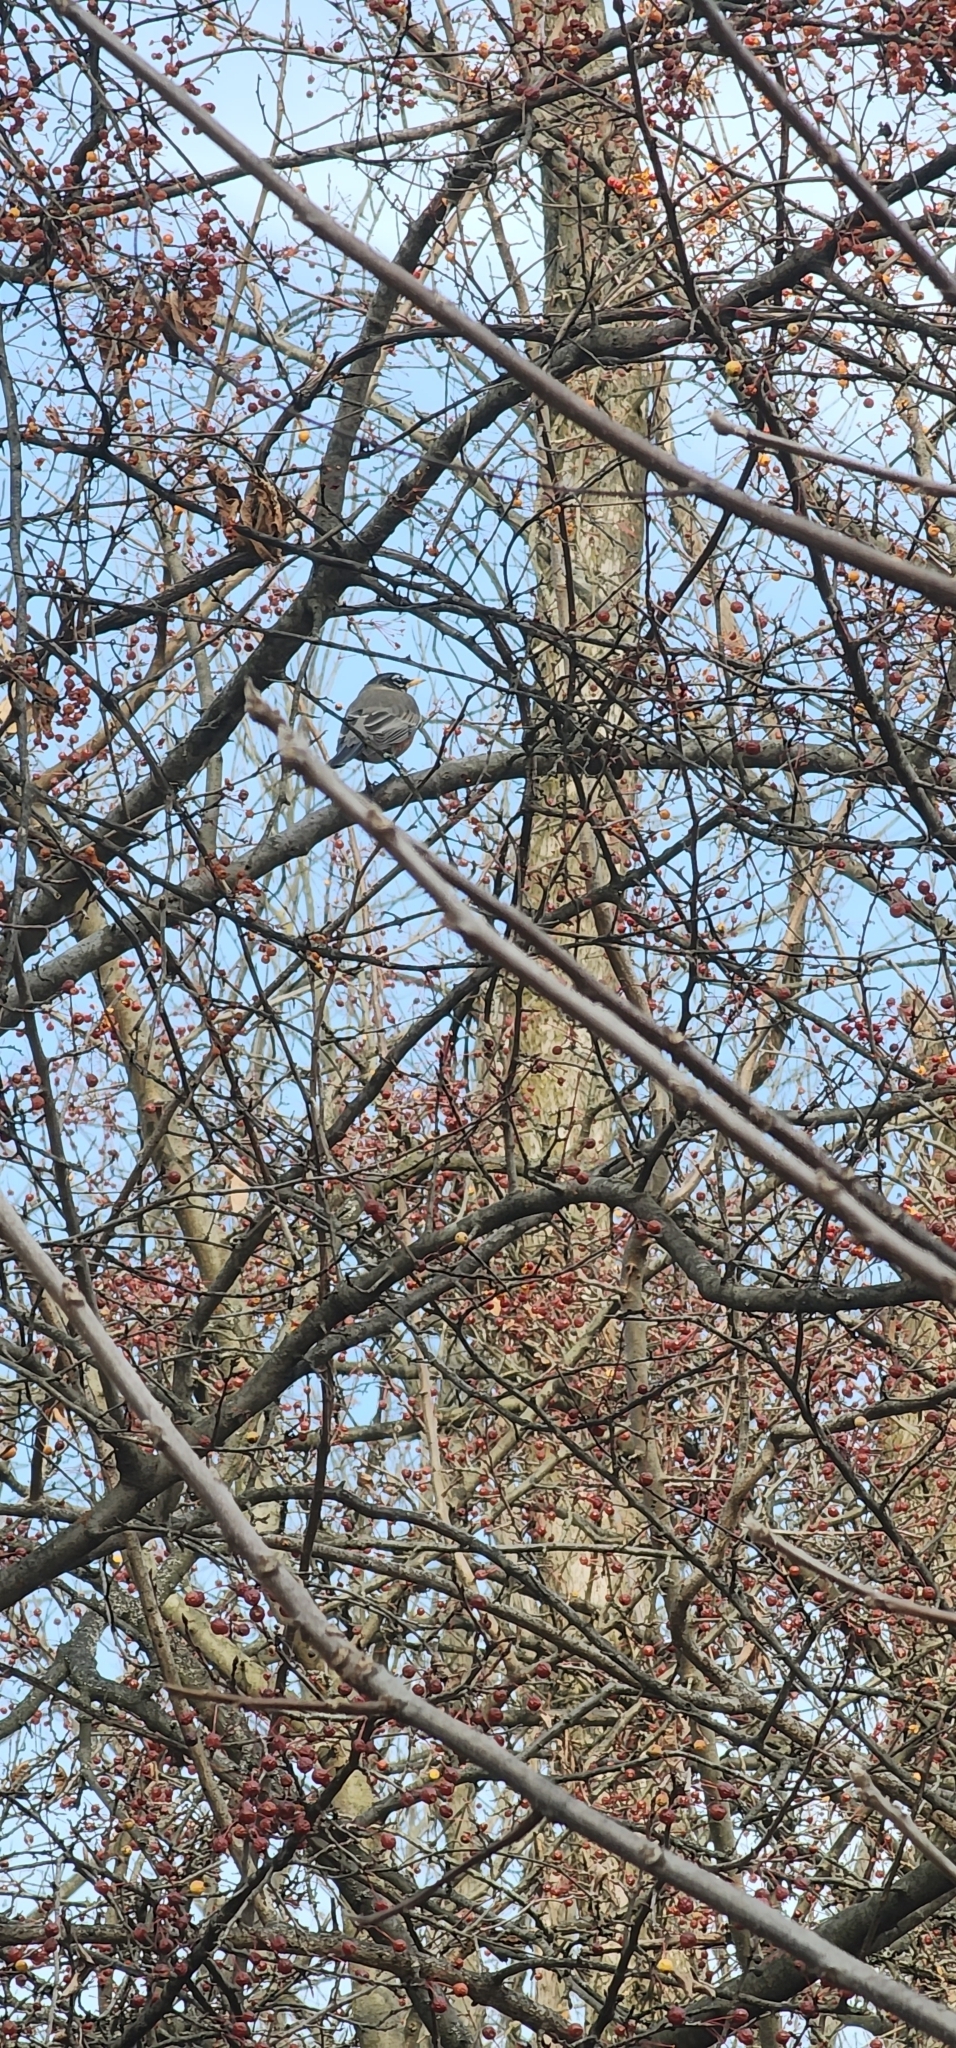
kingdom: Animalia
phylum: Chordata
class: Aves
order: Passeriformes
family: Turdidae
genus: Turdus
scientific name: Turdus migratorius
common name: American robin
